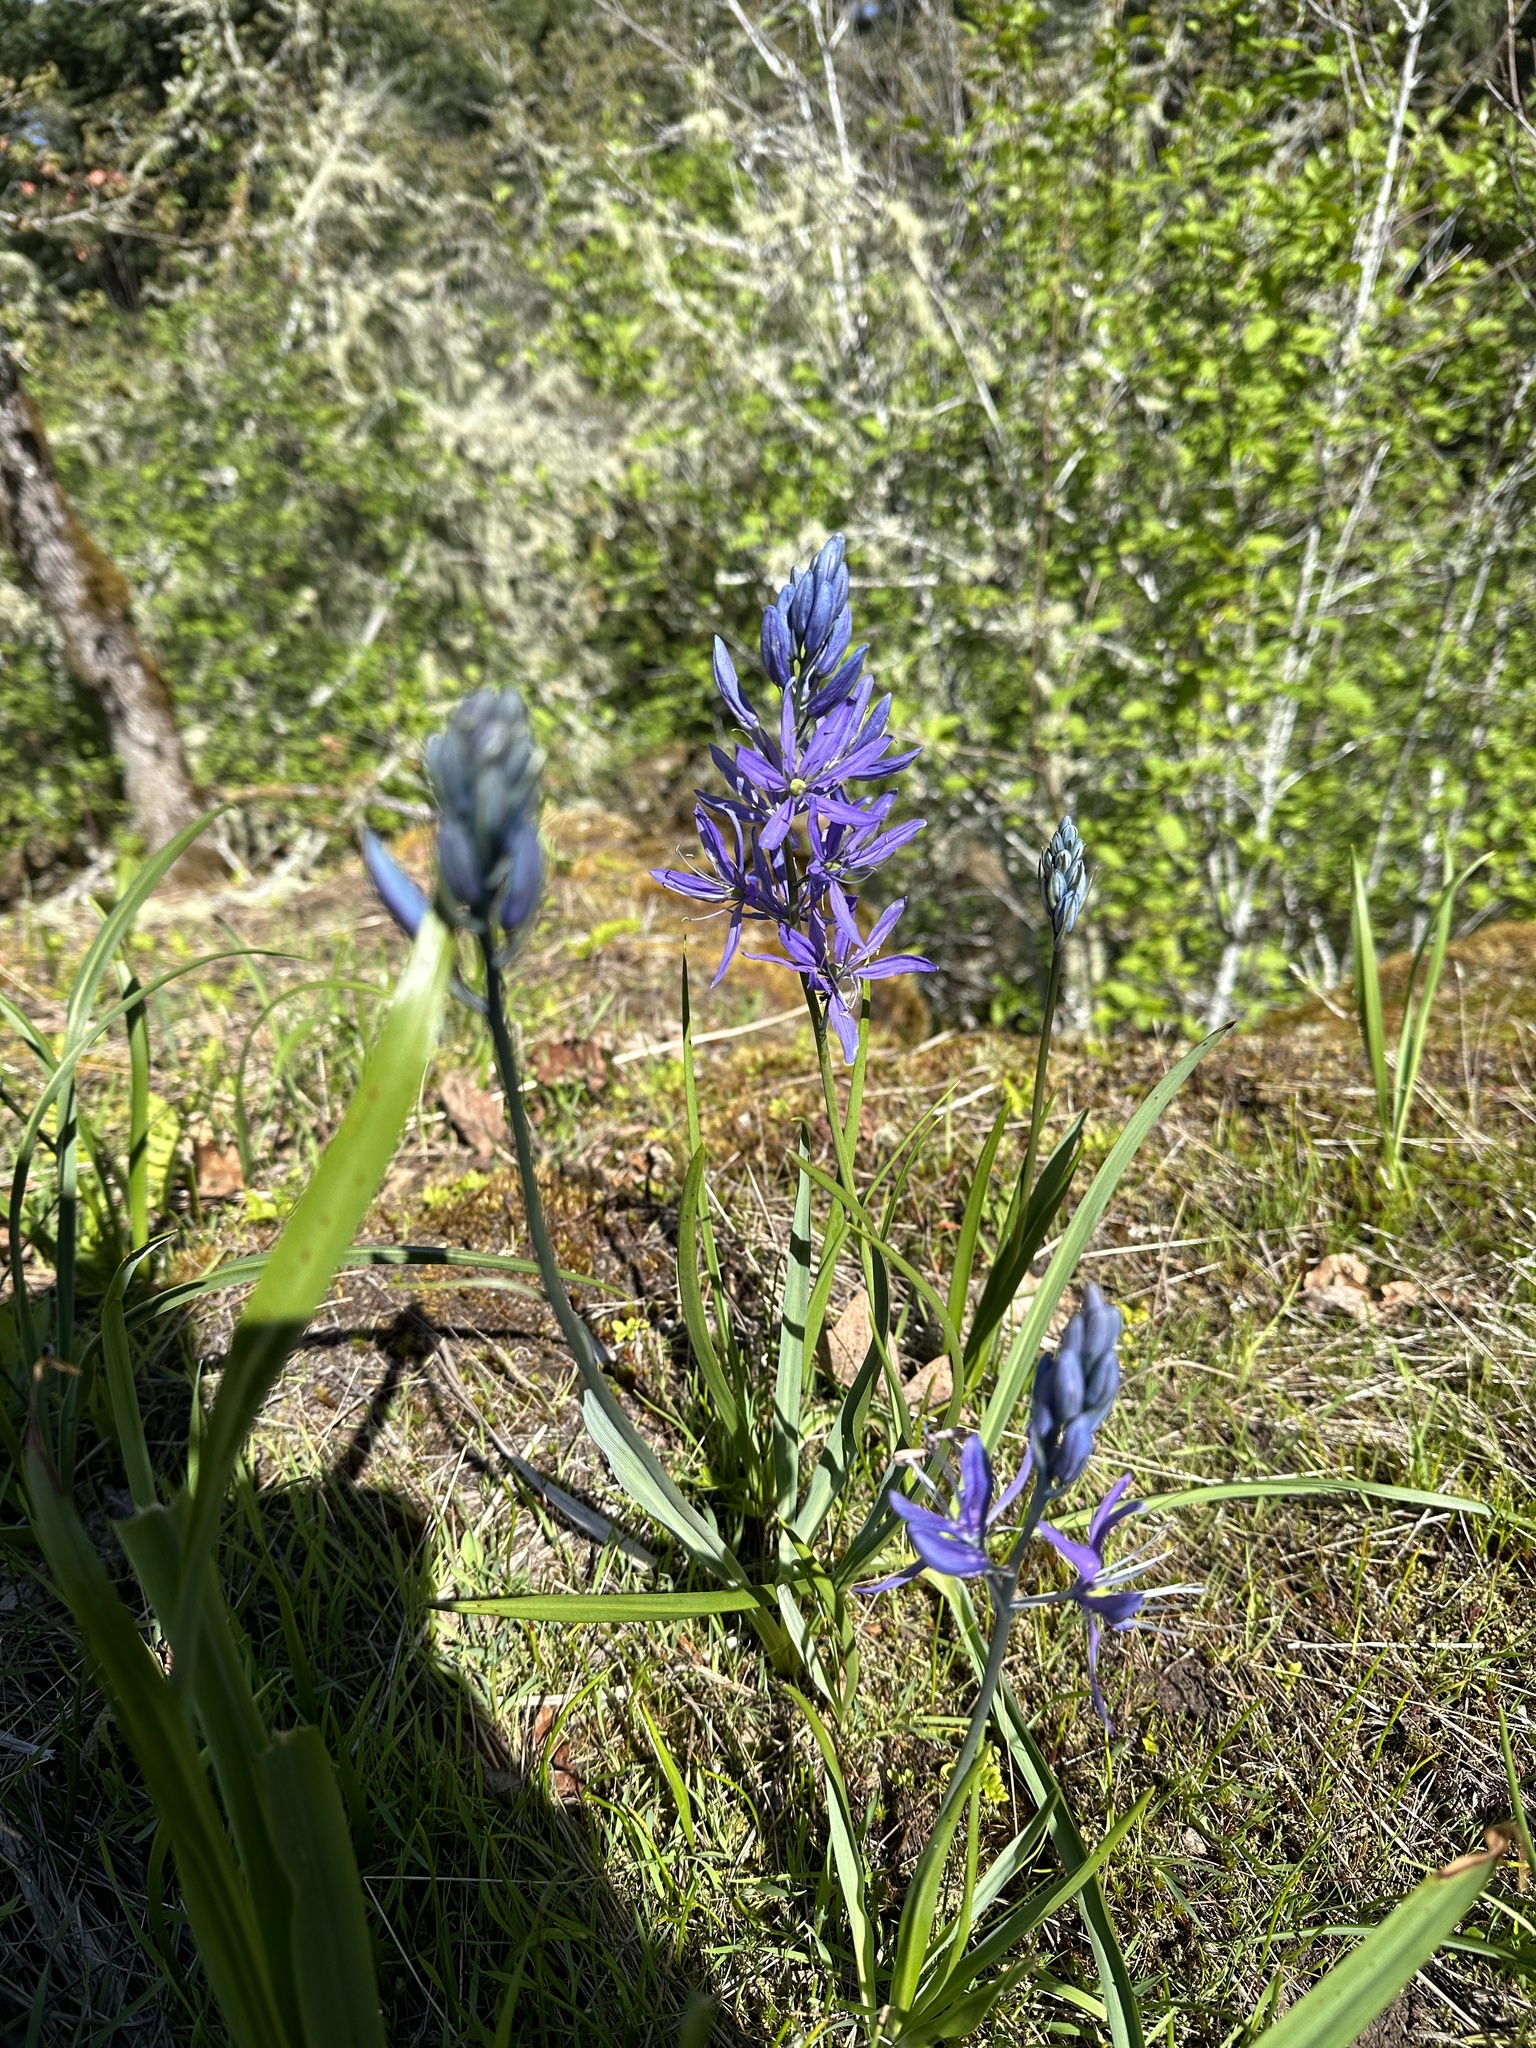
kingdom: Plantae
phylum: Tracheophyta
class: Liliopsida
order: Asparagales
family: Asparagaceae
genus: Camassia
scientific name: Camassia quamash
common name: Common camas
